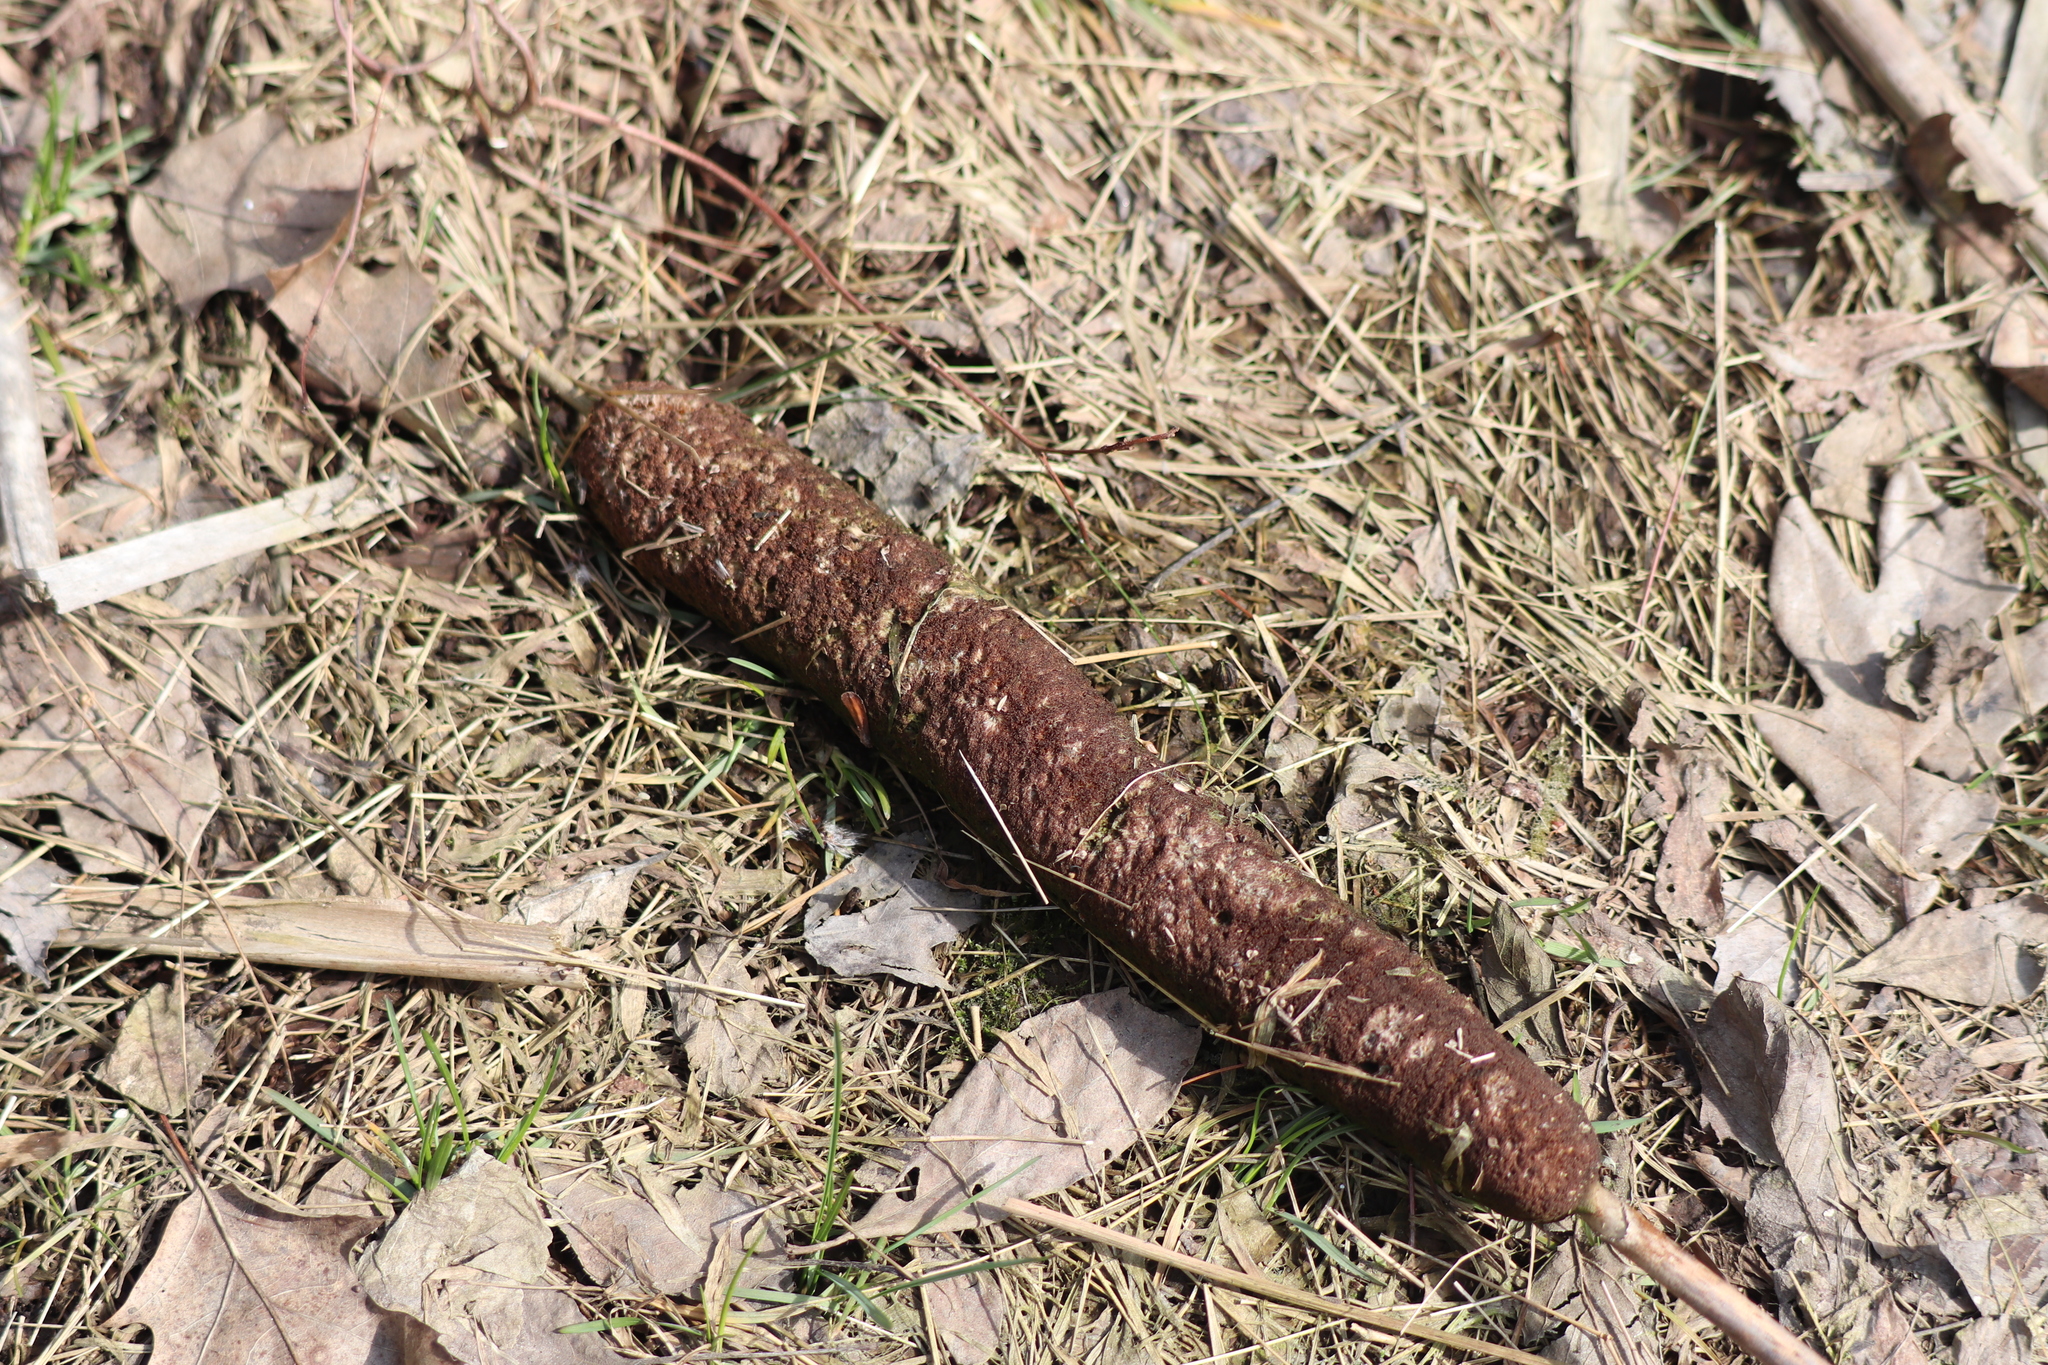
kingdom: Plantae
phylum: Tracheophyta
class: Liliopsida
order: Poales
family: Typhaceae
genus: Typha
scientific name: Typha latifolia
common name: Broadleaf cattail
